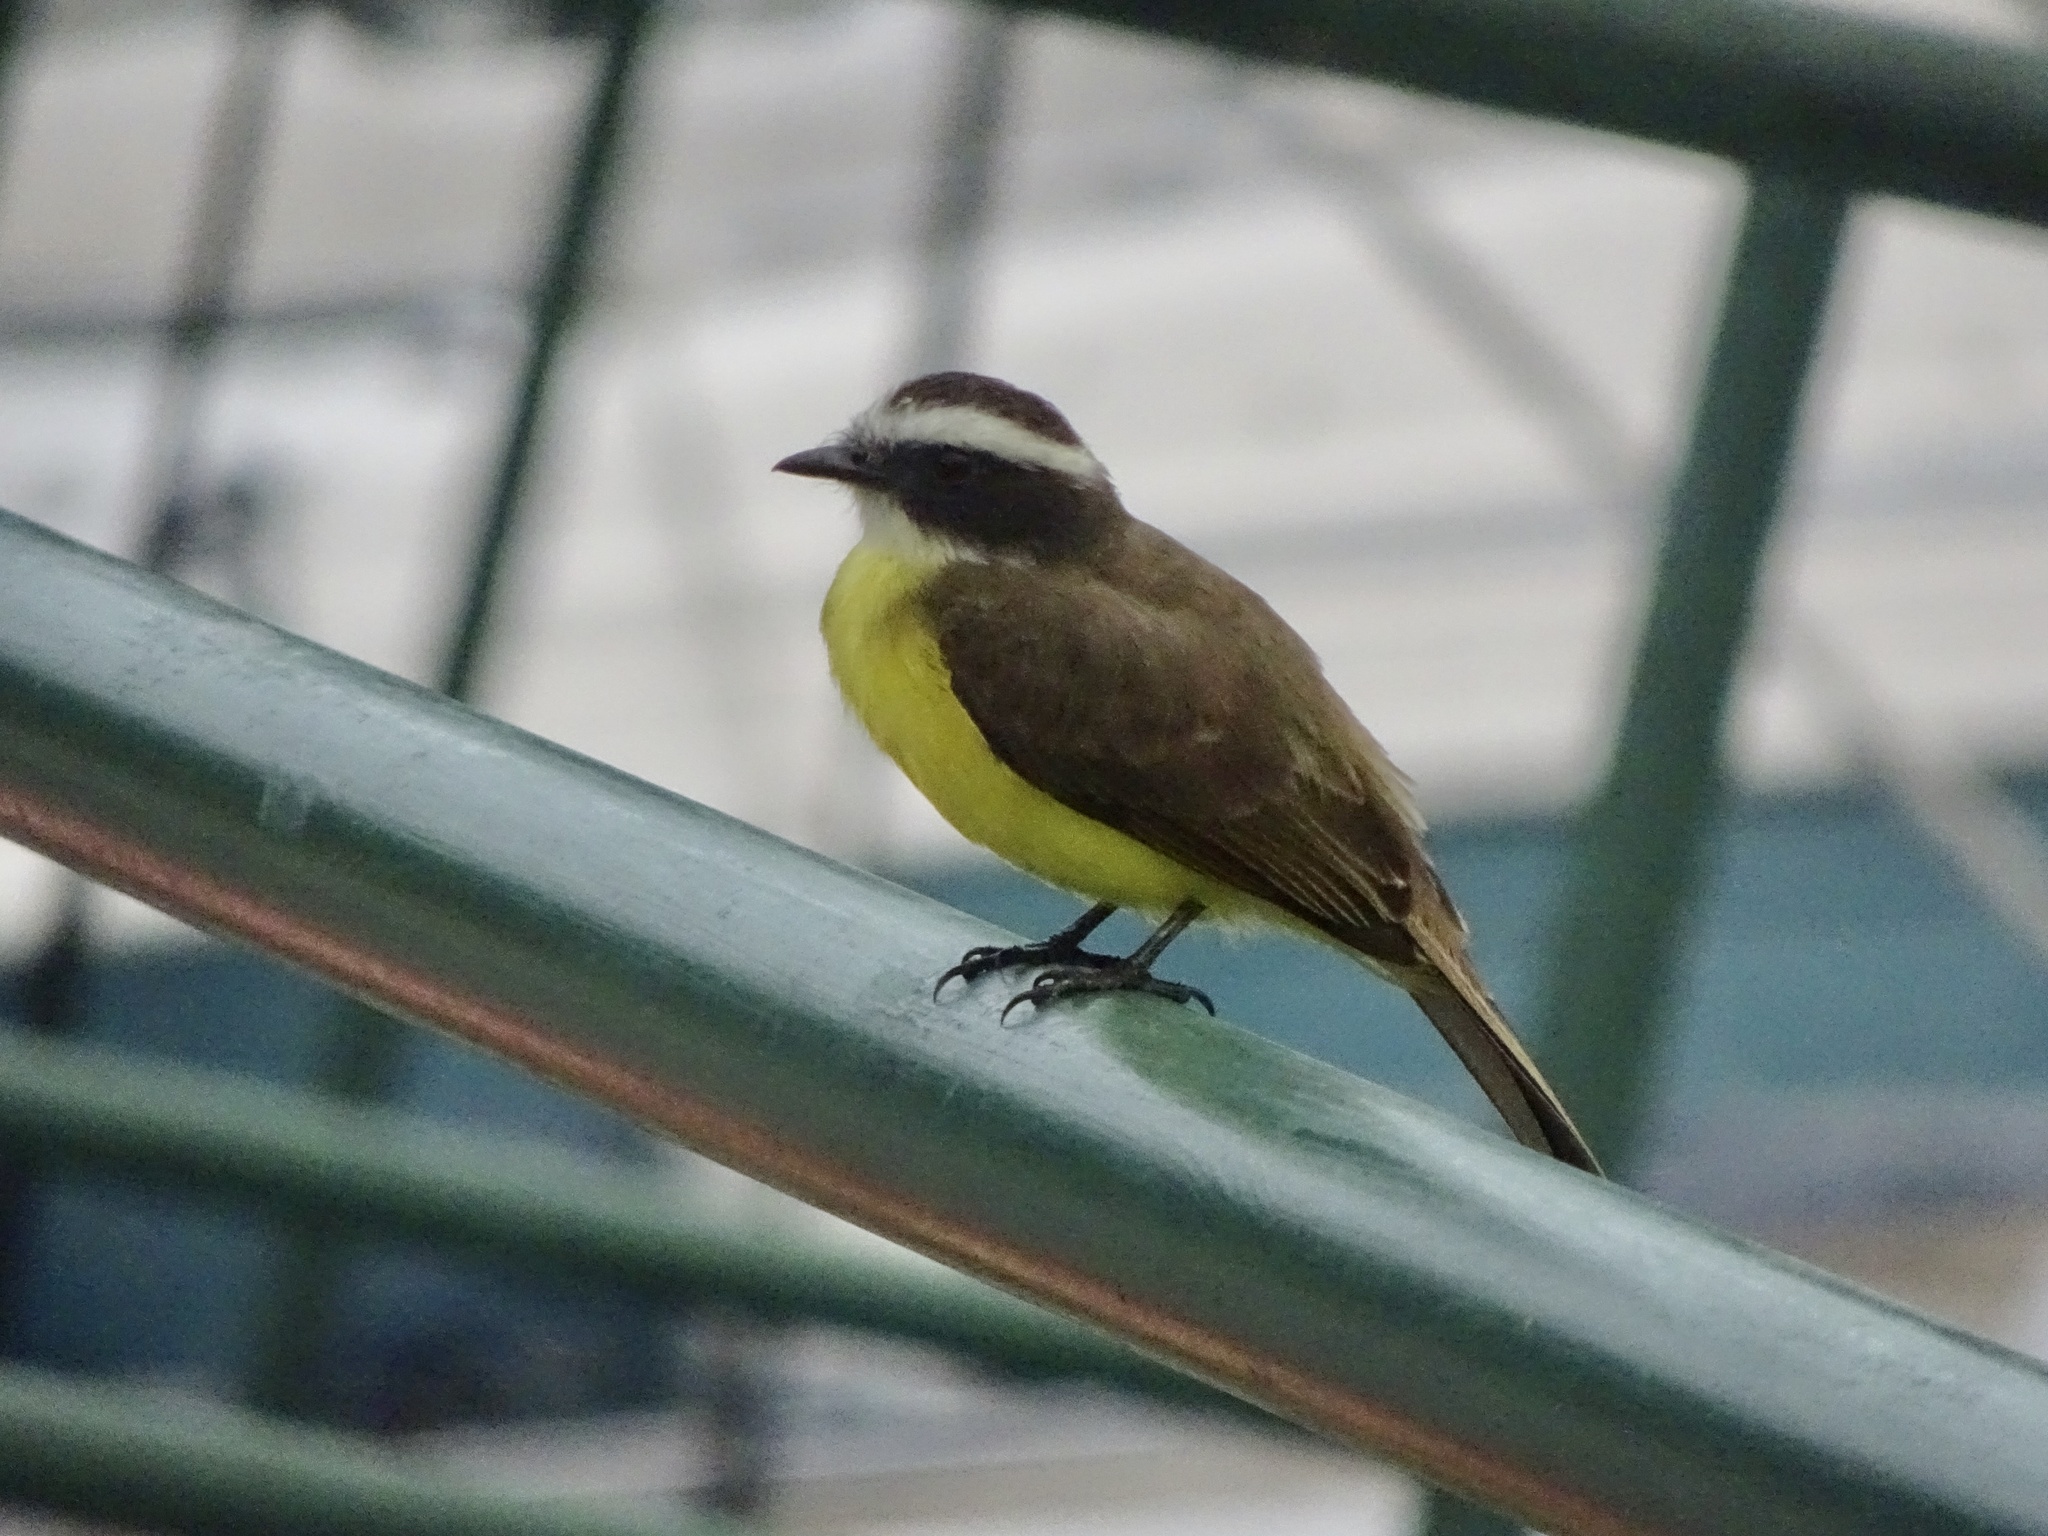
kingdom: Animalia
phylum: Chordata
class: Aves
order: Passeriformes
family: Tyrannidae
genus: Myiozetetes
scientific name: Myiozetetes cayanensis
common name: Rusty-margined flycatcher
